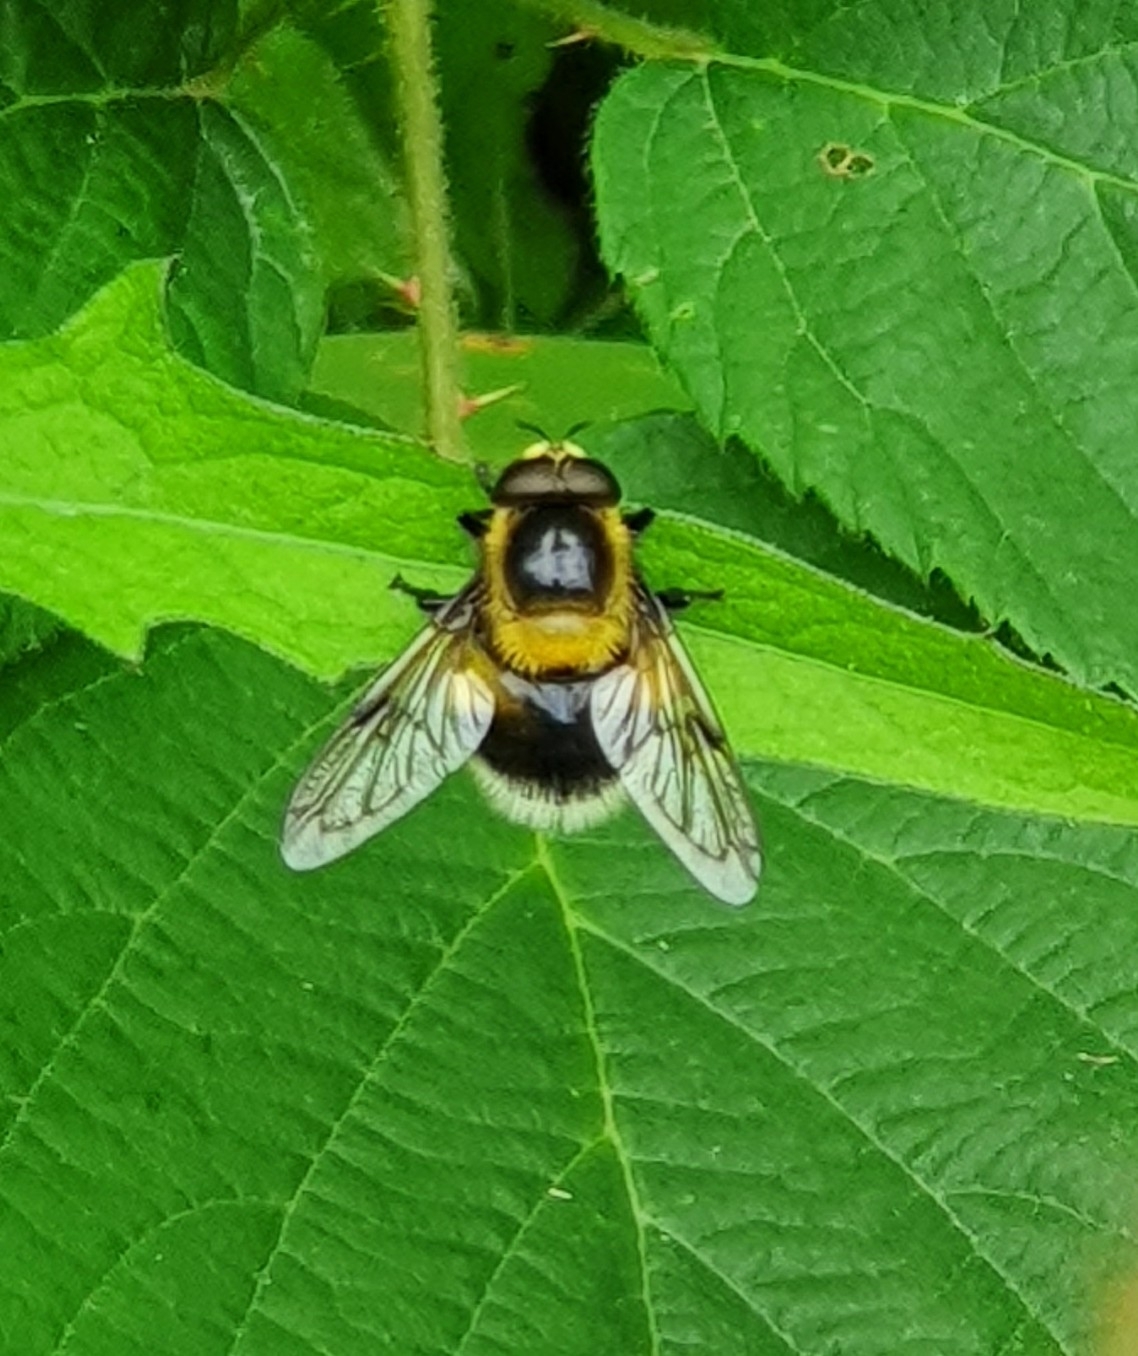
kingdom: Animalia
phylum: Arthropoda
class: Insecta
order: Diptera
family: Syrphidae
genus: Volucella
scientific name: Volucella bombylans
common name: Bumble bee hover fly
